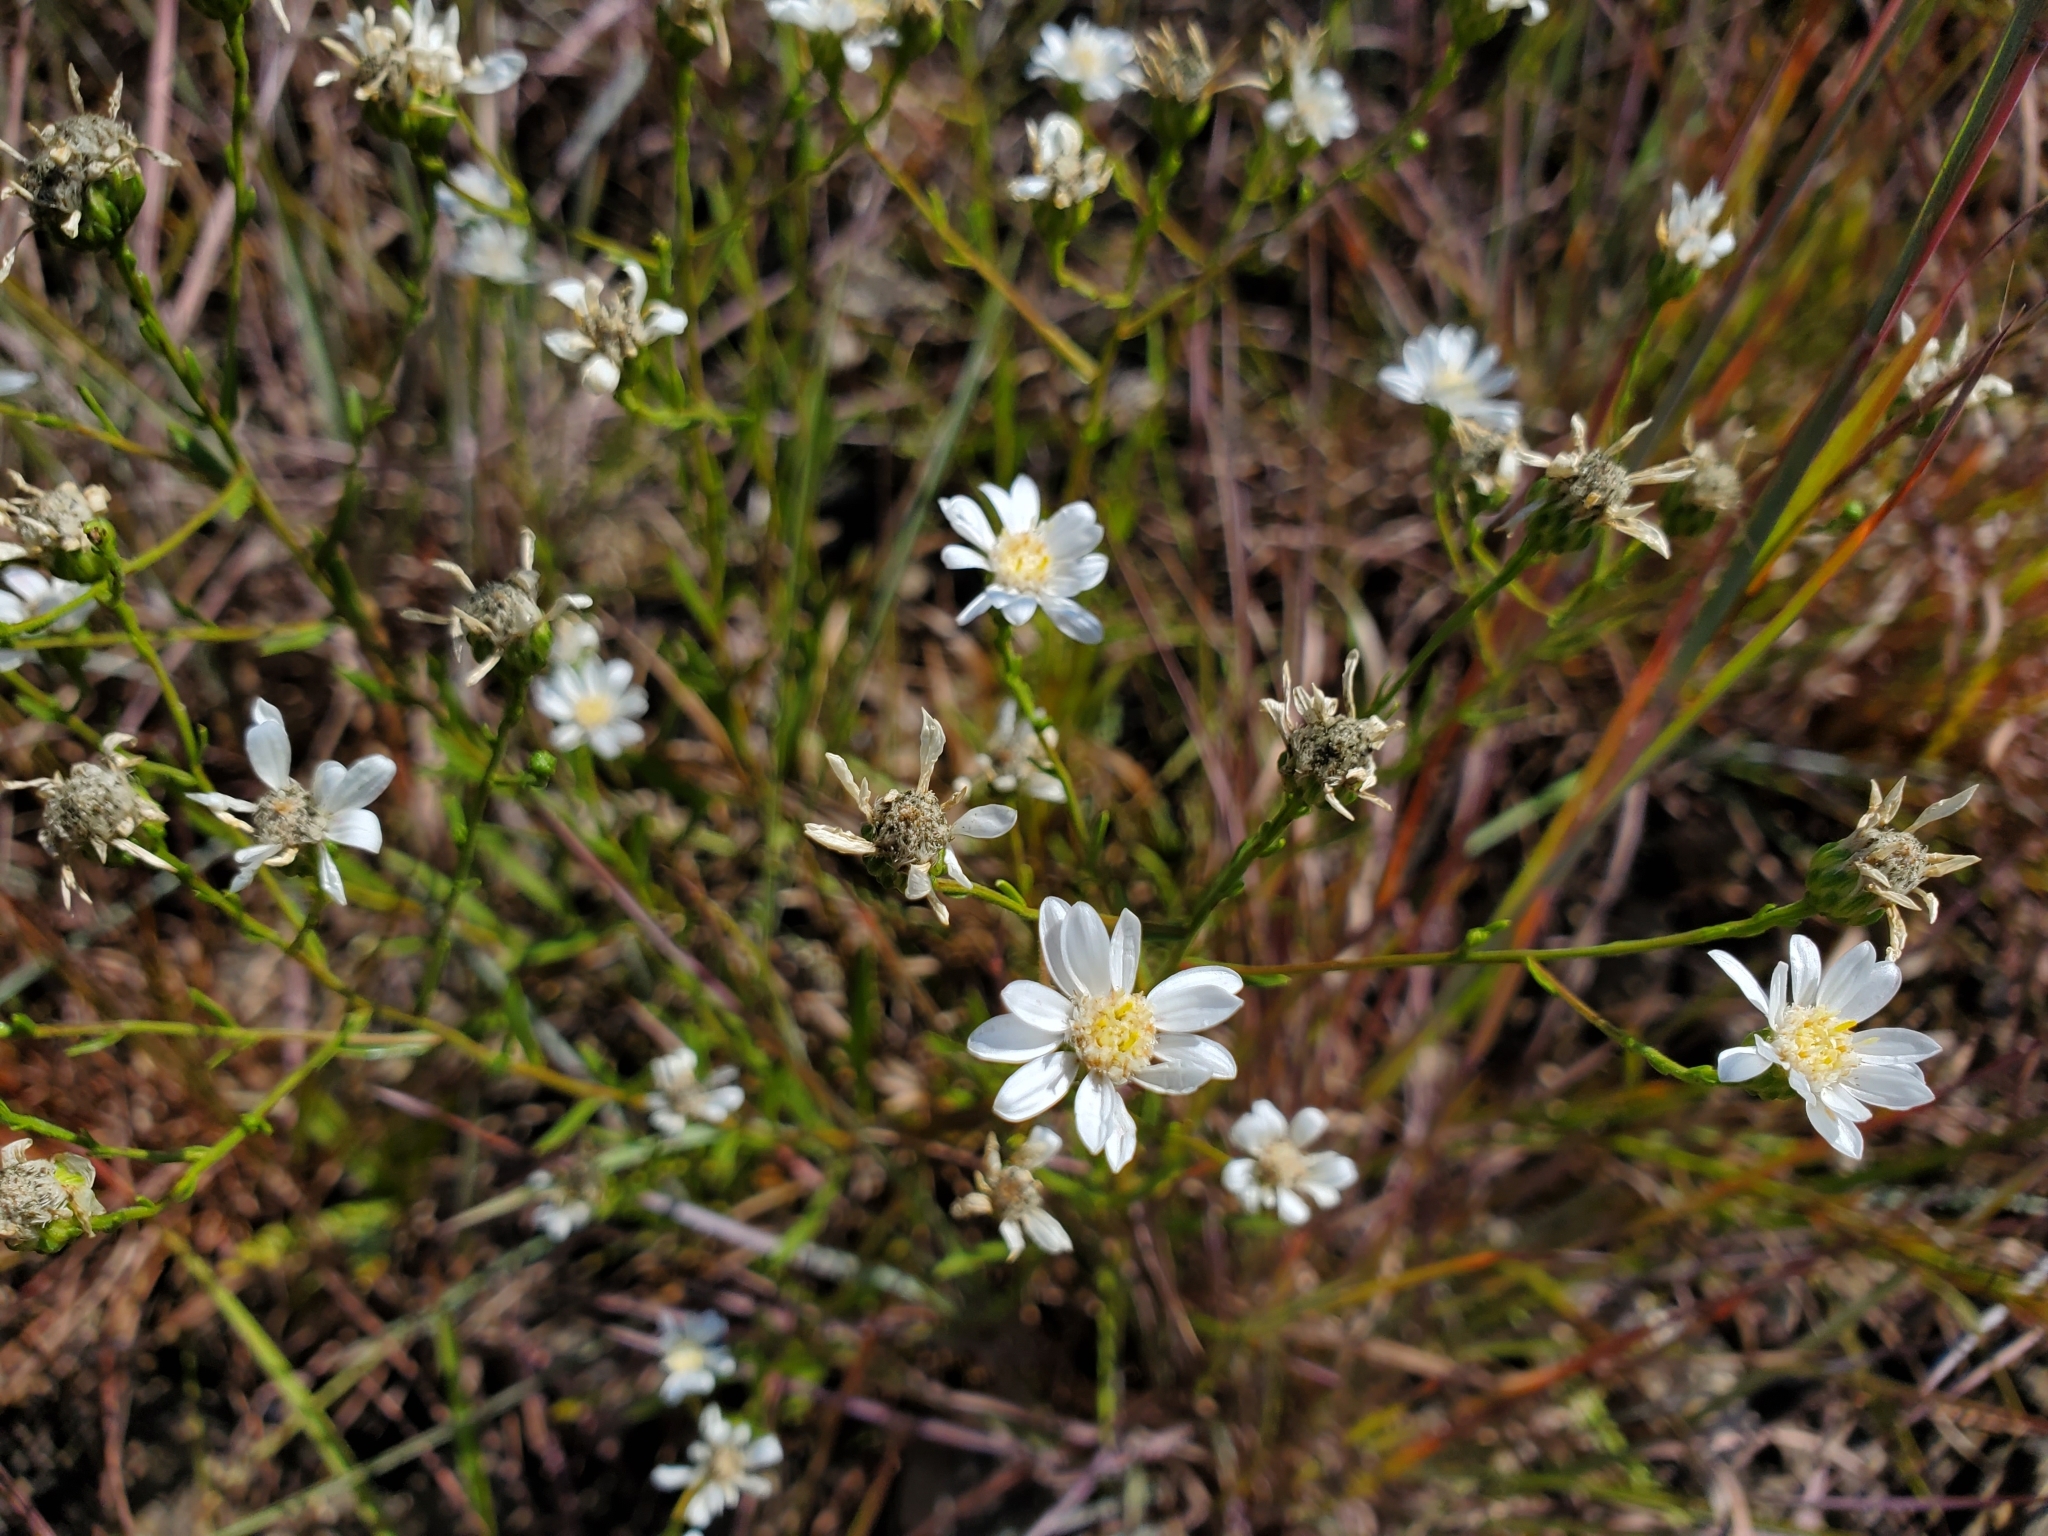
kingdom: Plantae
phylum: Tracheophyta
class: Magnoliopsida
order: Asterales
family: Asteraceae
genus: Solidago
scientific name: Solidago ptarmicoides
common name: White flat-top goldenrod
